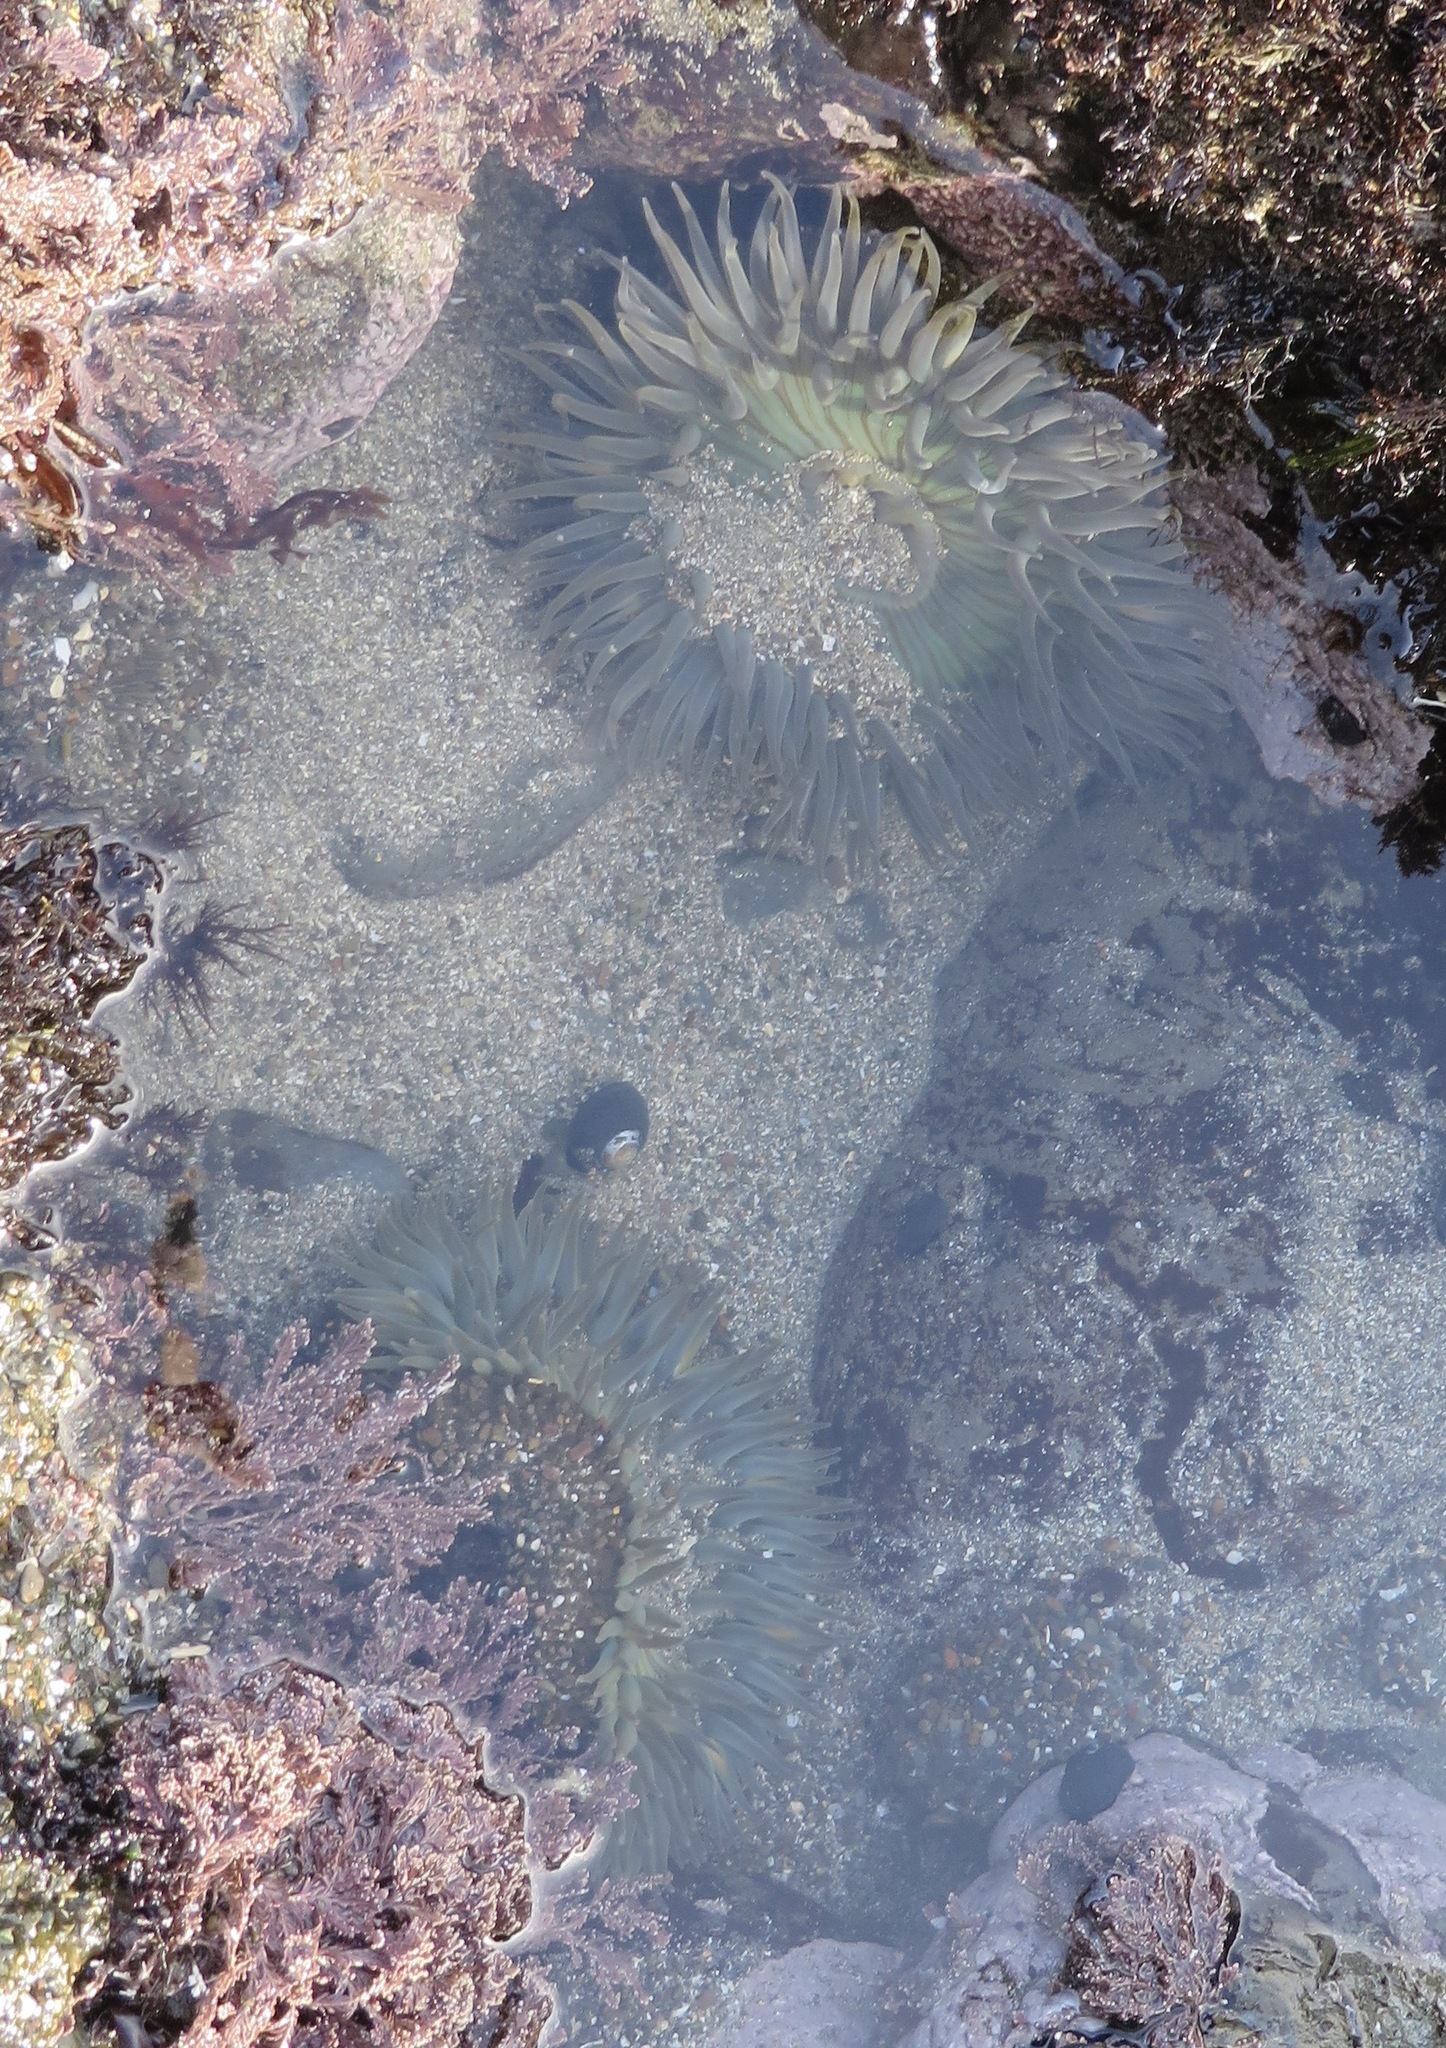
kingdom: Animalia
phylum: Cnidaria
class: Anthozoa
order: Actiniaria
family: Actiniidae
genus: Anthopleura
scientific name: Anthopleura sola
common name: Sun anemone
